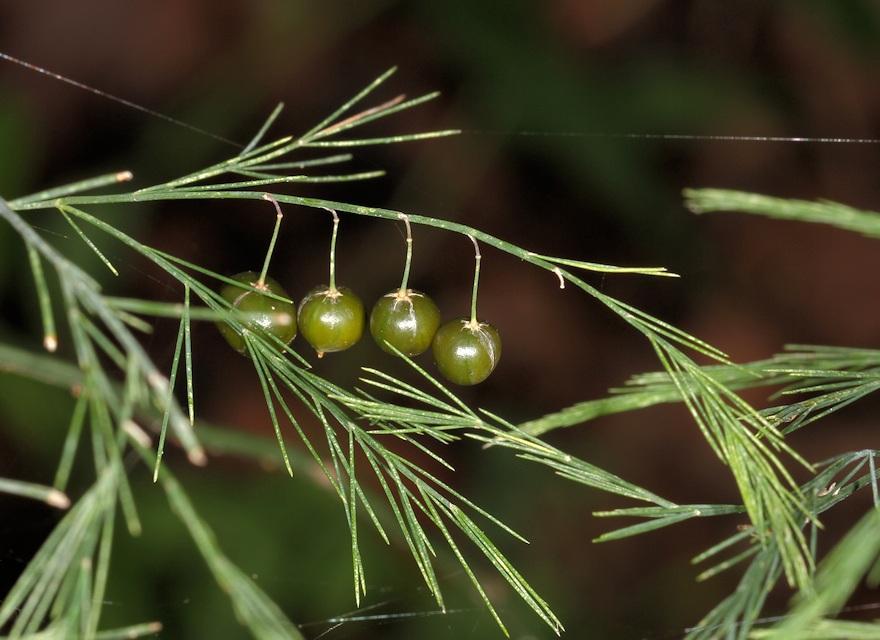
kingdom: Plantae
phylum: Tracheophyta
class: Liliopsida
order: Asparagales
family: Asparagaceae
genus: Asparagus
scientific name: Asparagus virgatus
